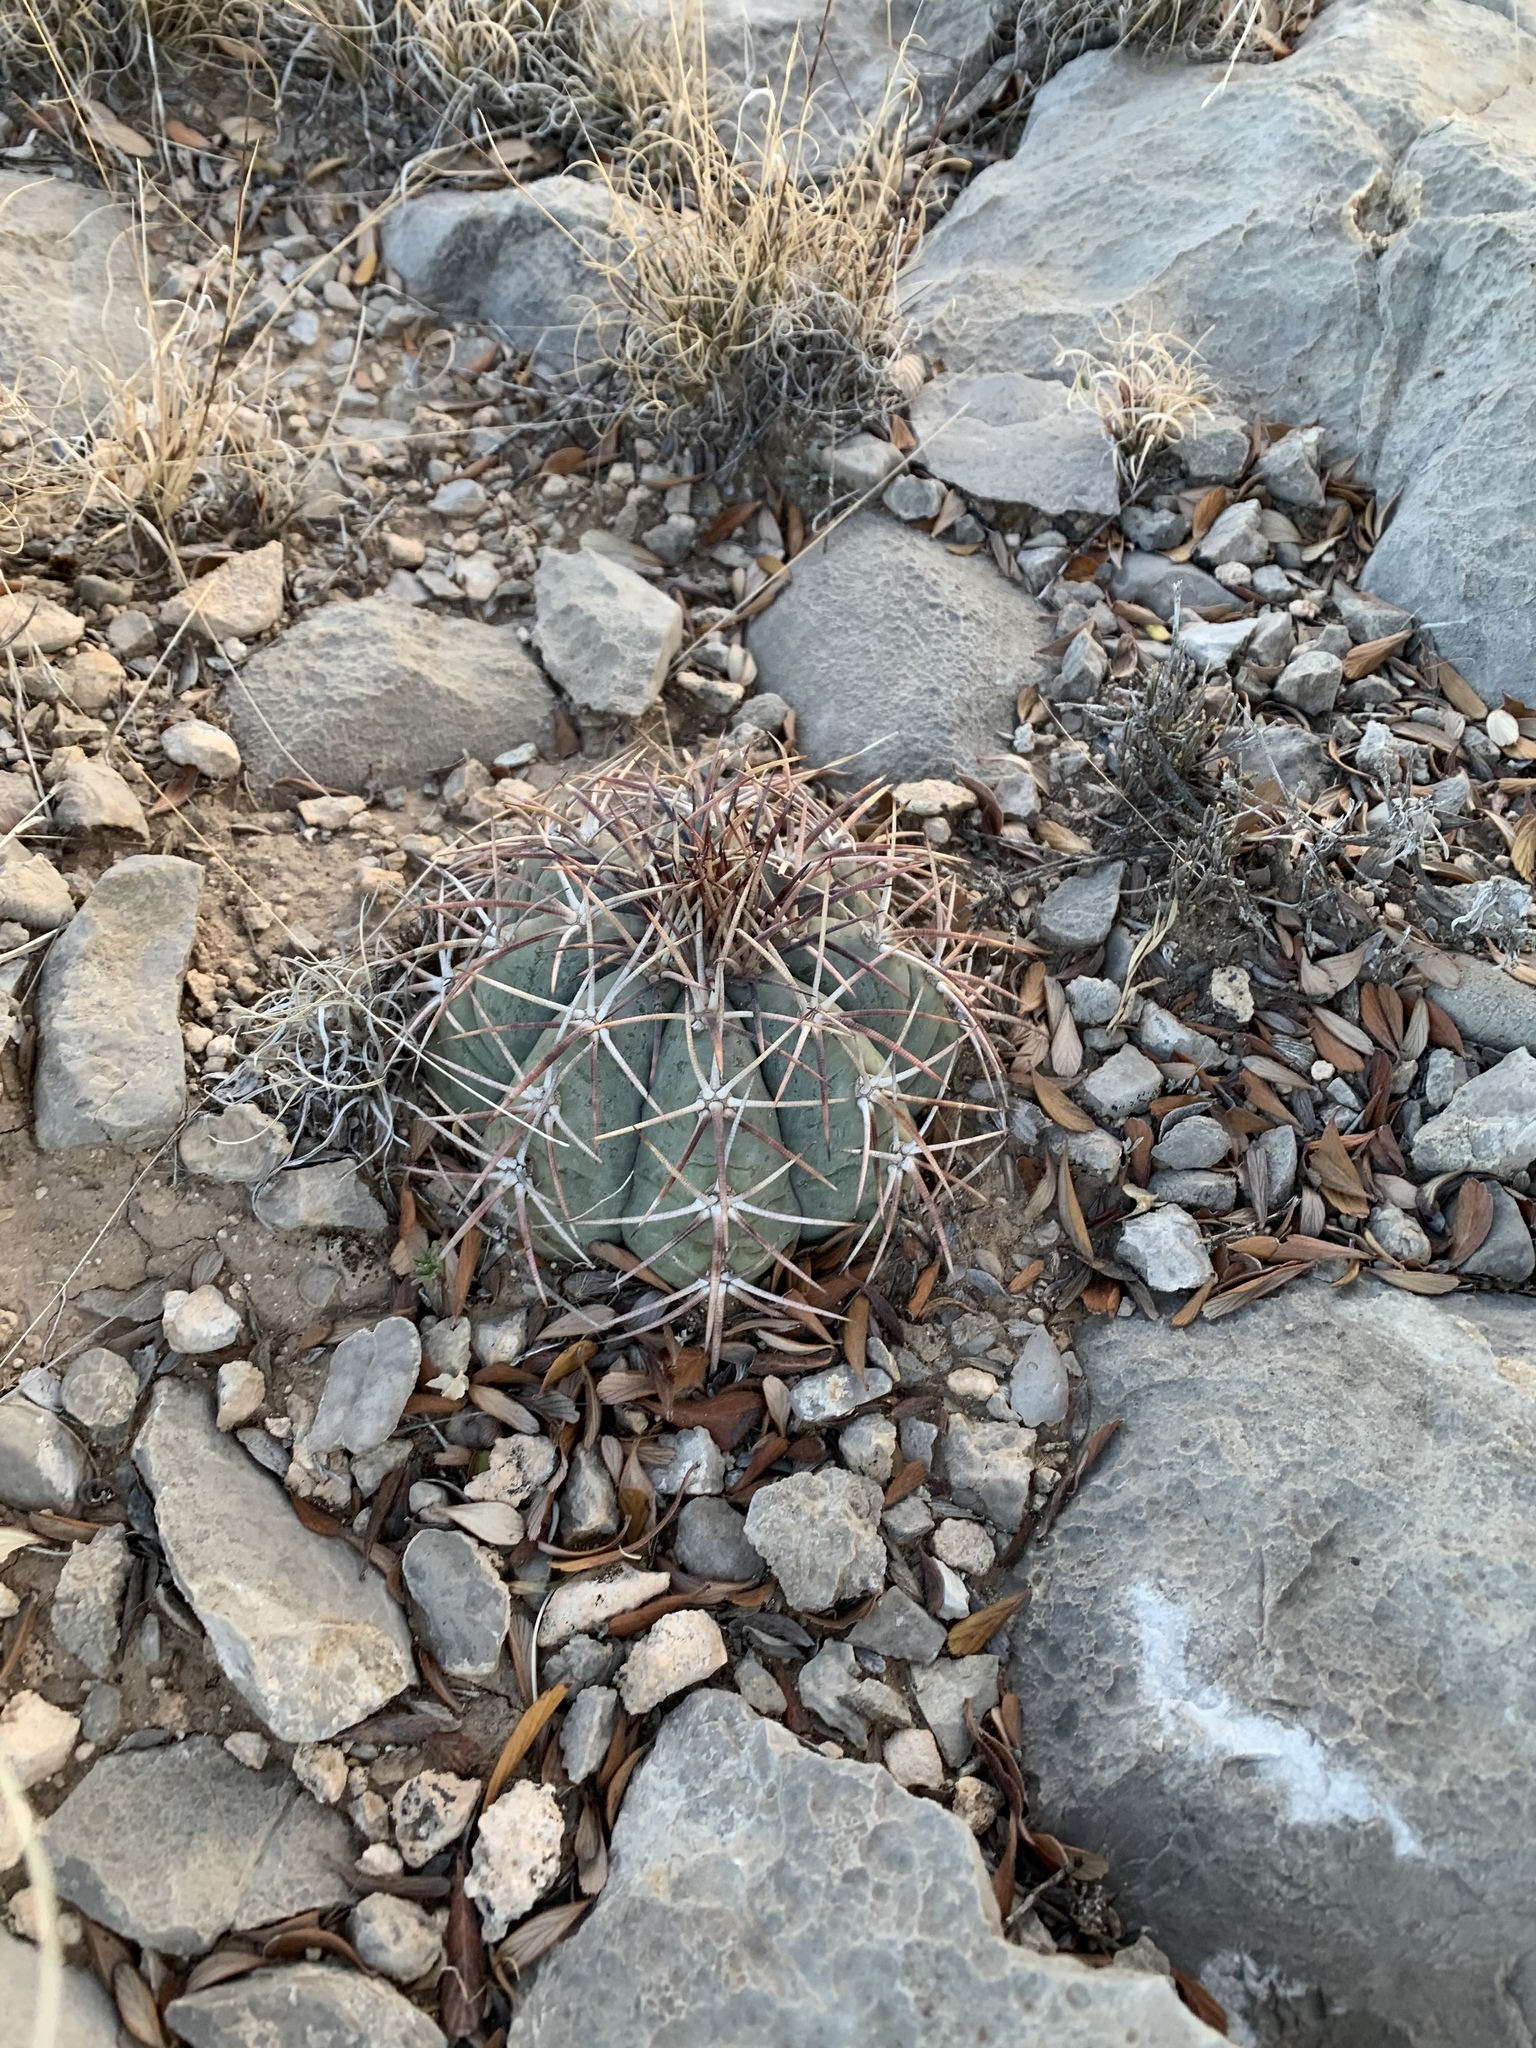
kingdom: Plantae
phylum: Tracheophyta
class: Magnoliopsida
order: Caryophyllales
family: Cactaceae
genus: Echinocactus
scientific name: Echinocactus horizonthalonius
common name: Devilshead
